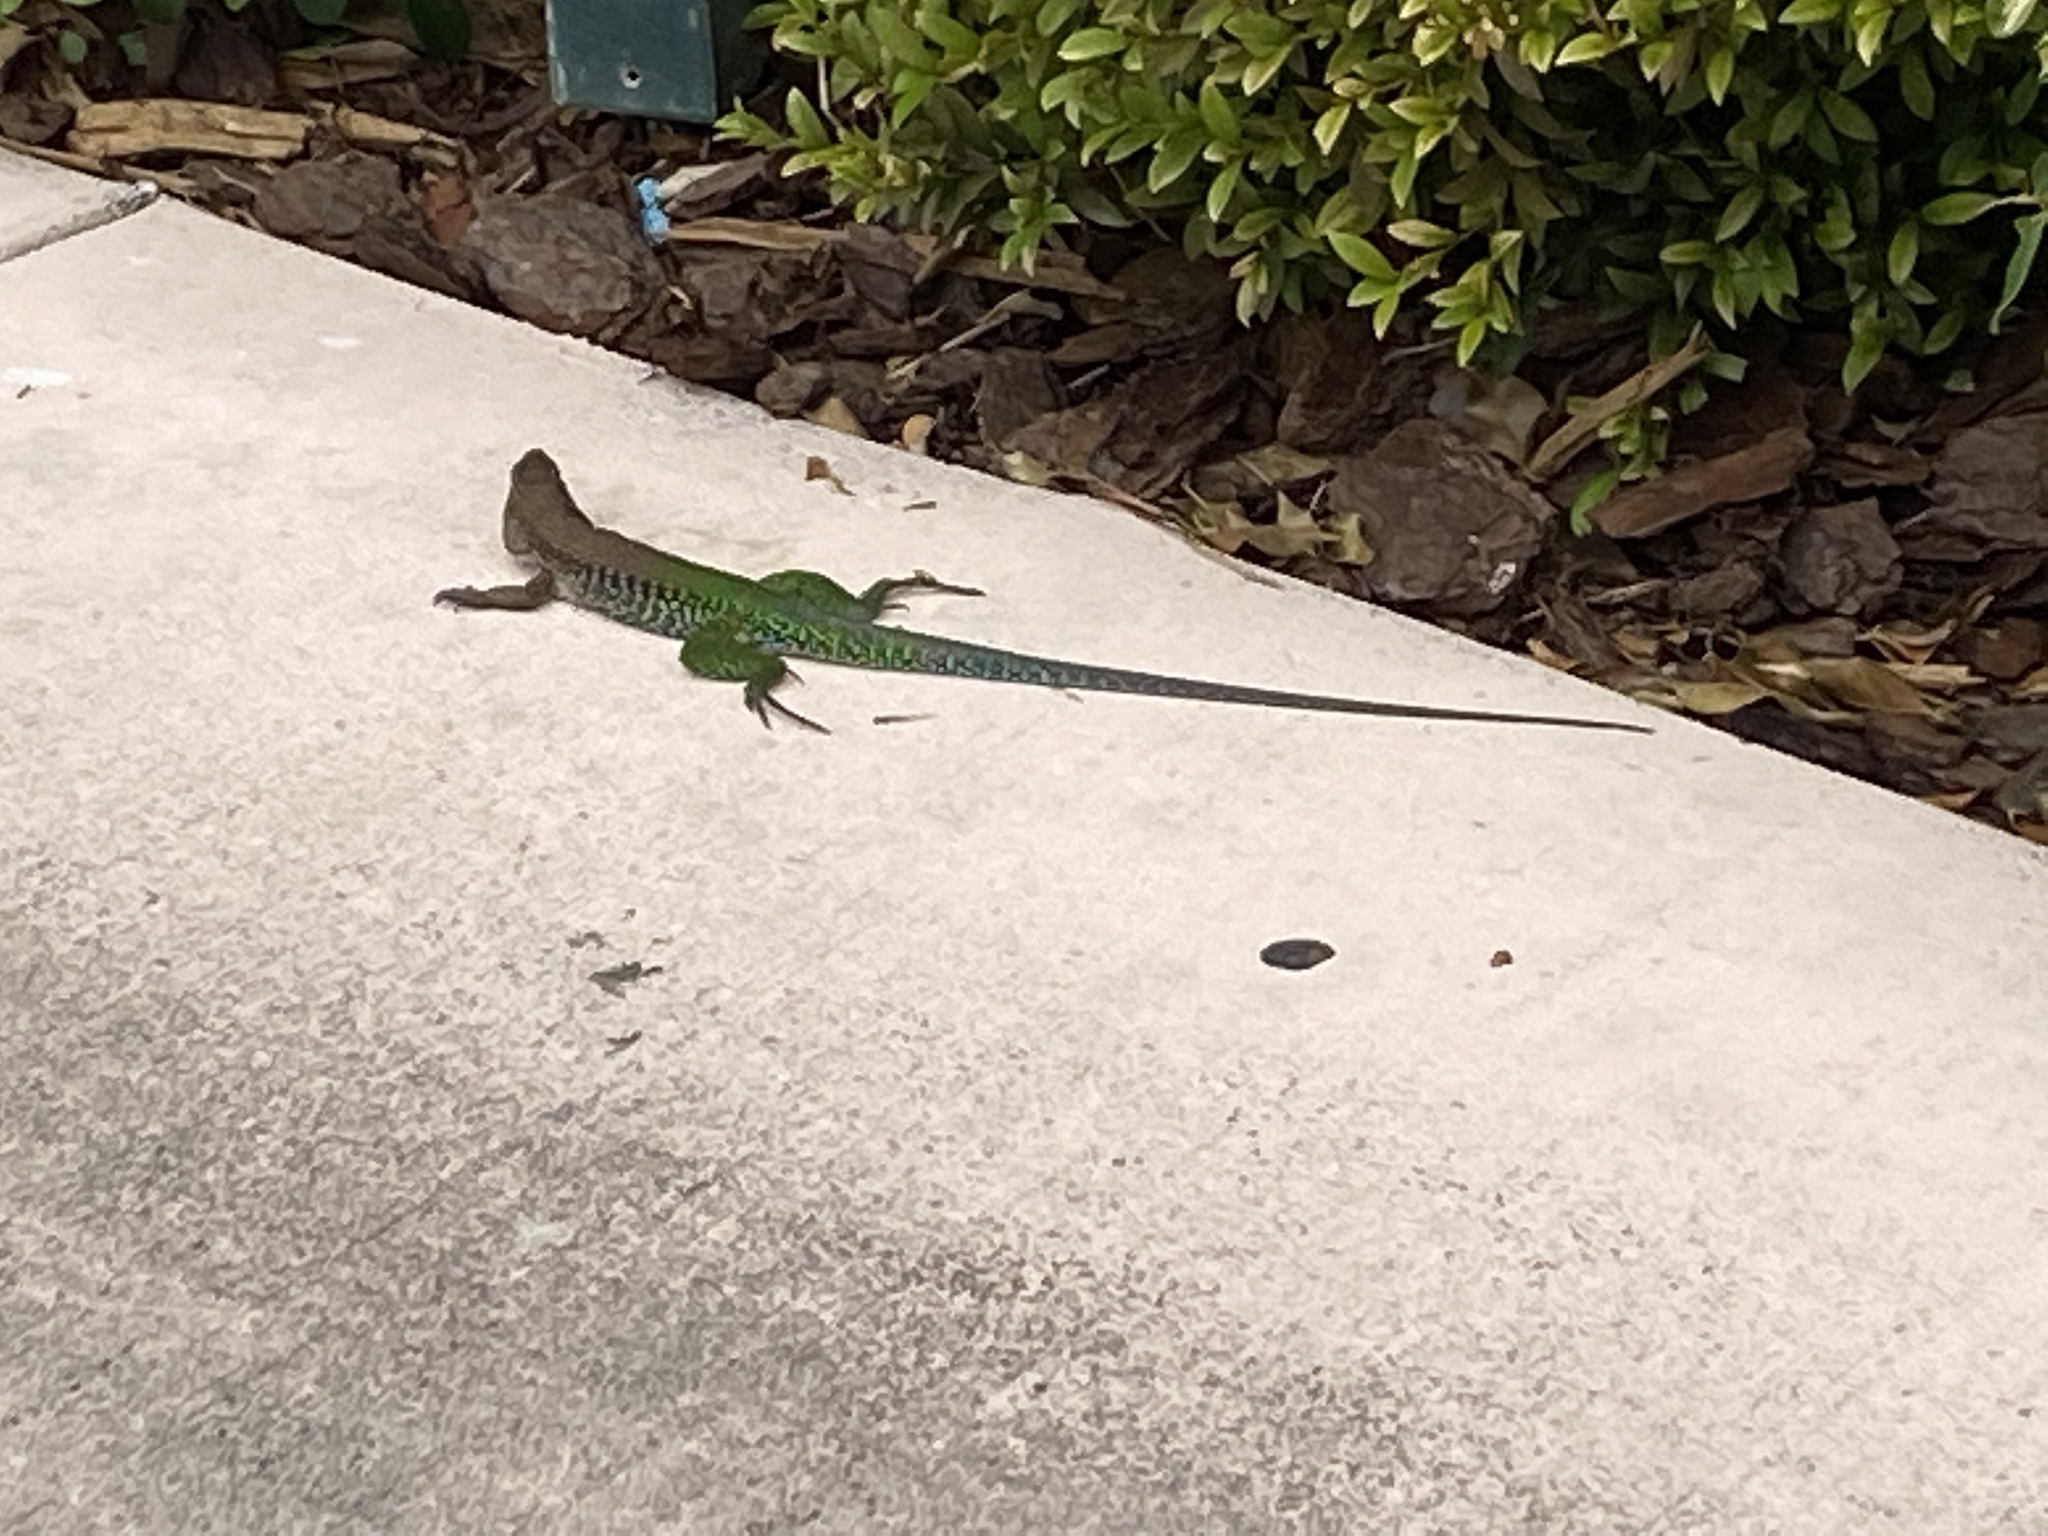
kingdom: Animalia
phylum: Chordata
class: Squamata
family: Teiidae
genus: Ameiva
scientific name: Ameiva ameiva
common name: Giant ameiva
